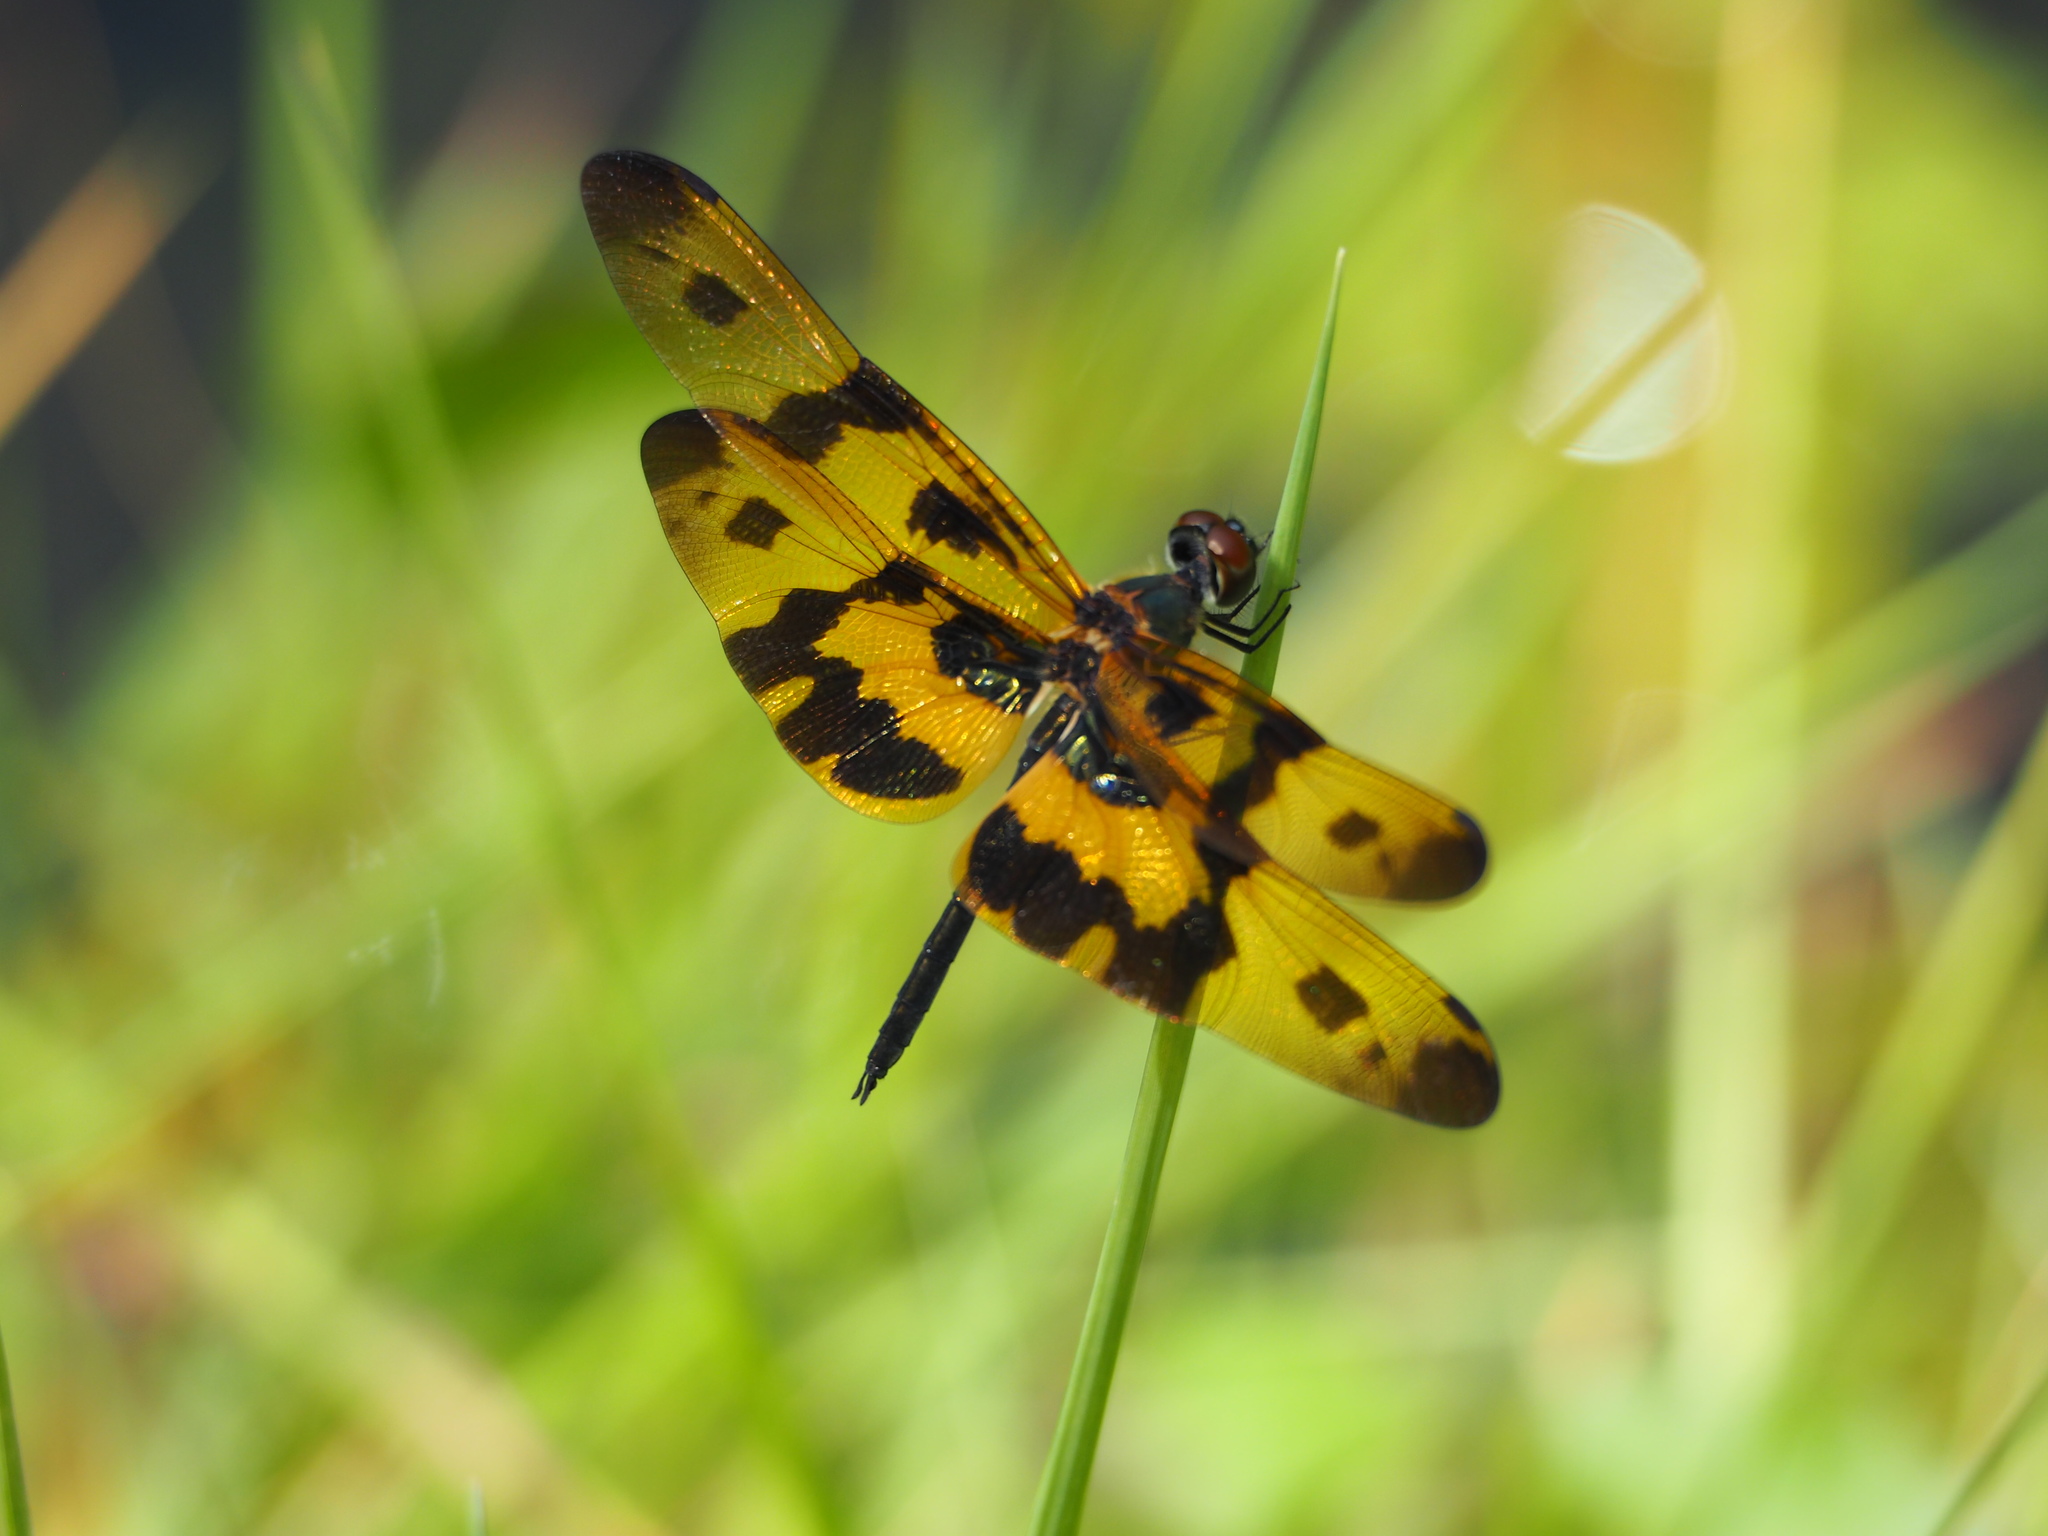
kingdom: Animalia
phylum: Arthropoda
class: Insecta
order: Odonata
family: Libellulidae
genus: Rhyothemis
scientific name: Rhyothemis variegata
